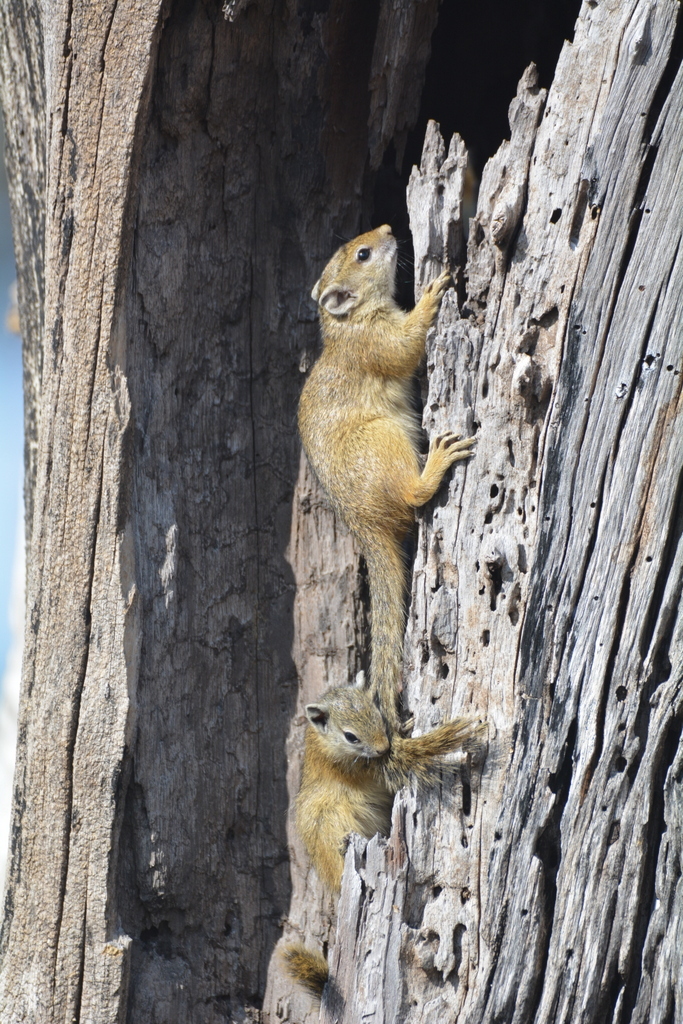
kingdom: Animalia
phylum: Chordata
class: Mammalia
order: Rodentia
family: Sciuridae
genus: Paraxerus
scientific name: Paraxerus cepapi
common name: Smith's bush squirrel
